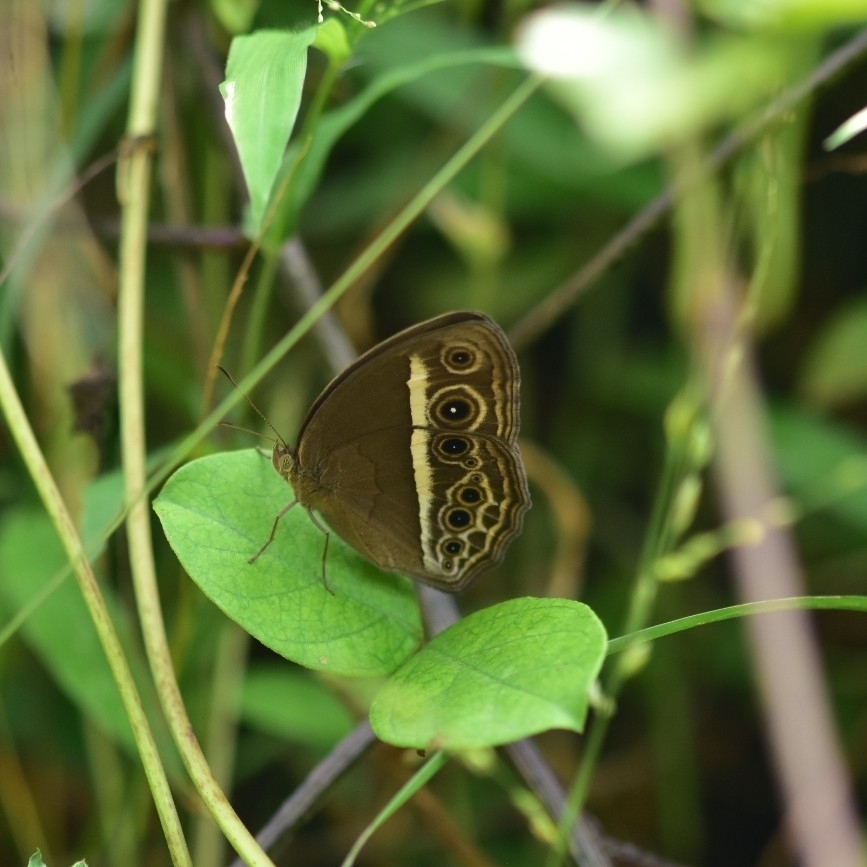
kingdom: Animalia
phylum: Arthropoda
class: Insecta
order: Lepidoptera
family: Nymphalidae
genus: Mycalesis
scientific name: Mycalesis mineus
